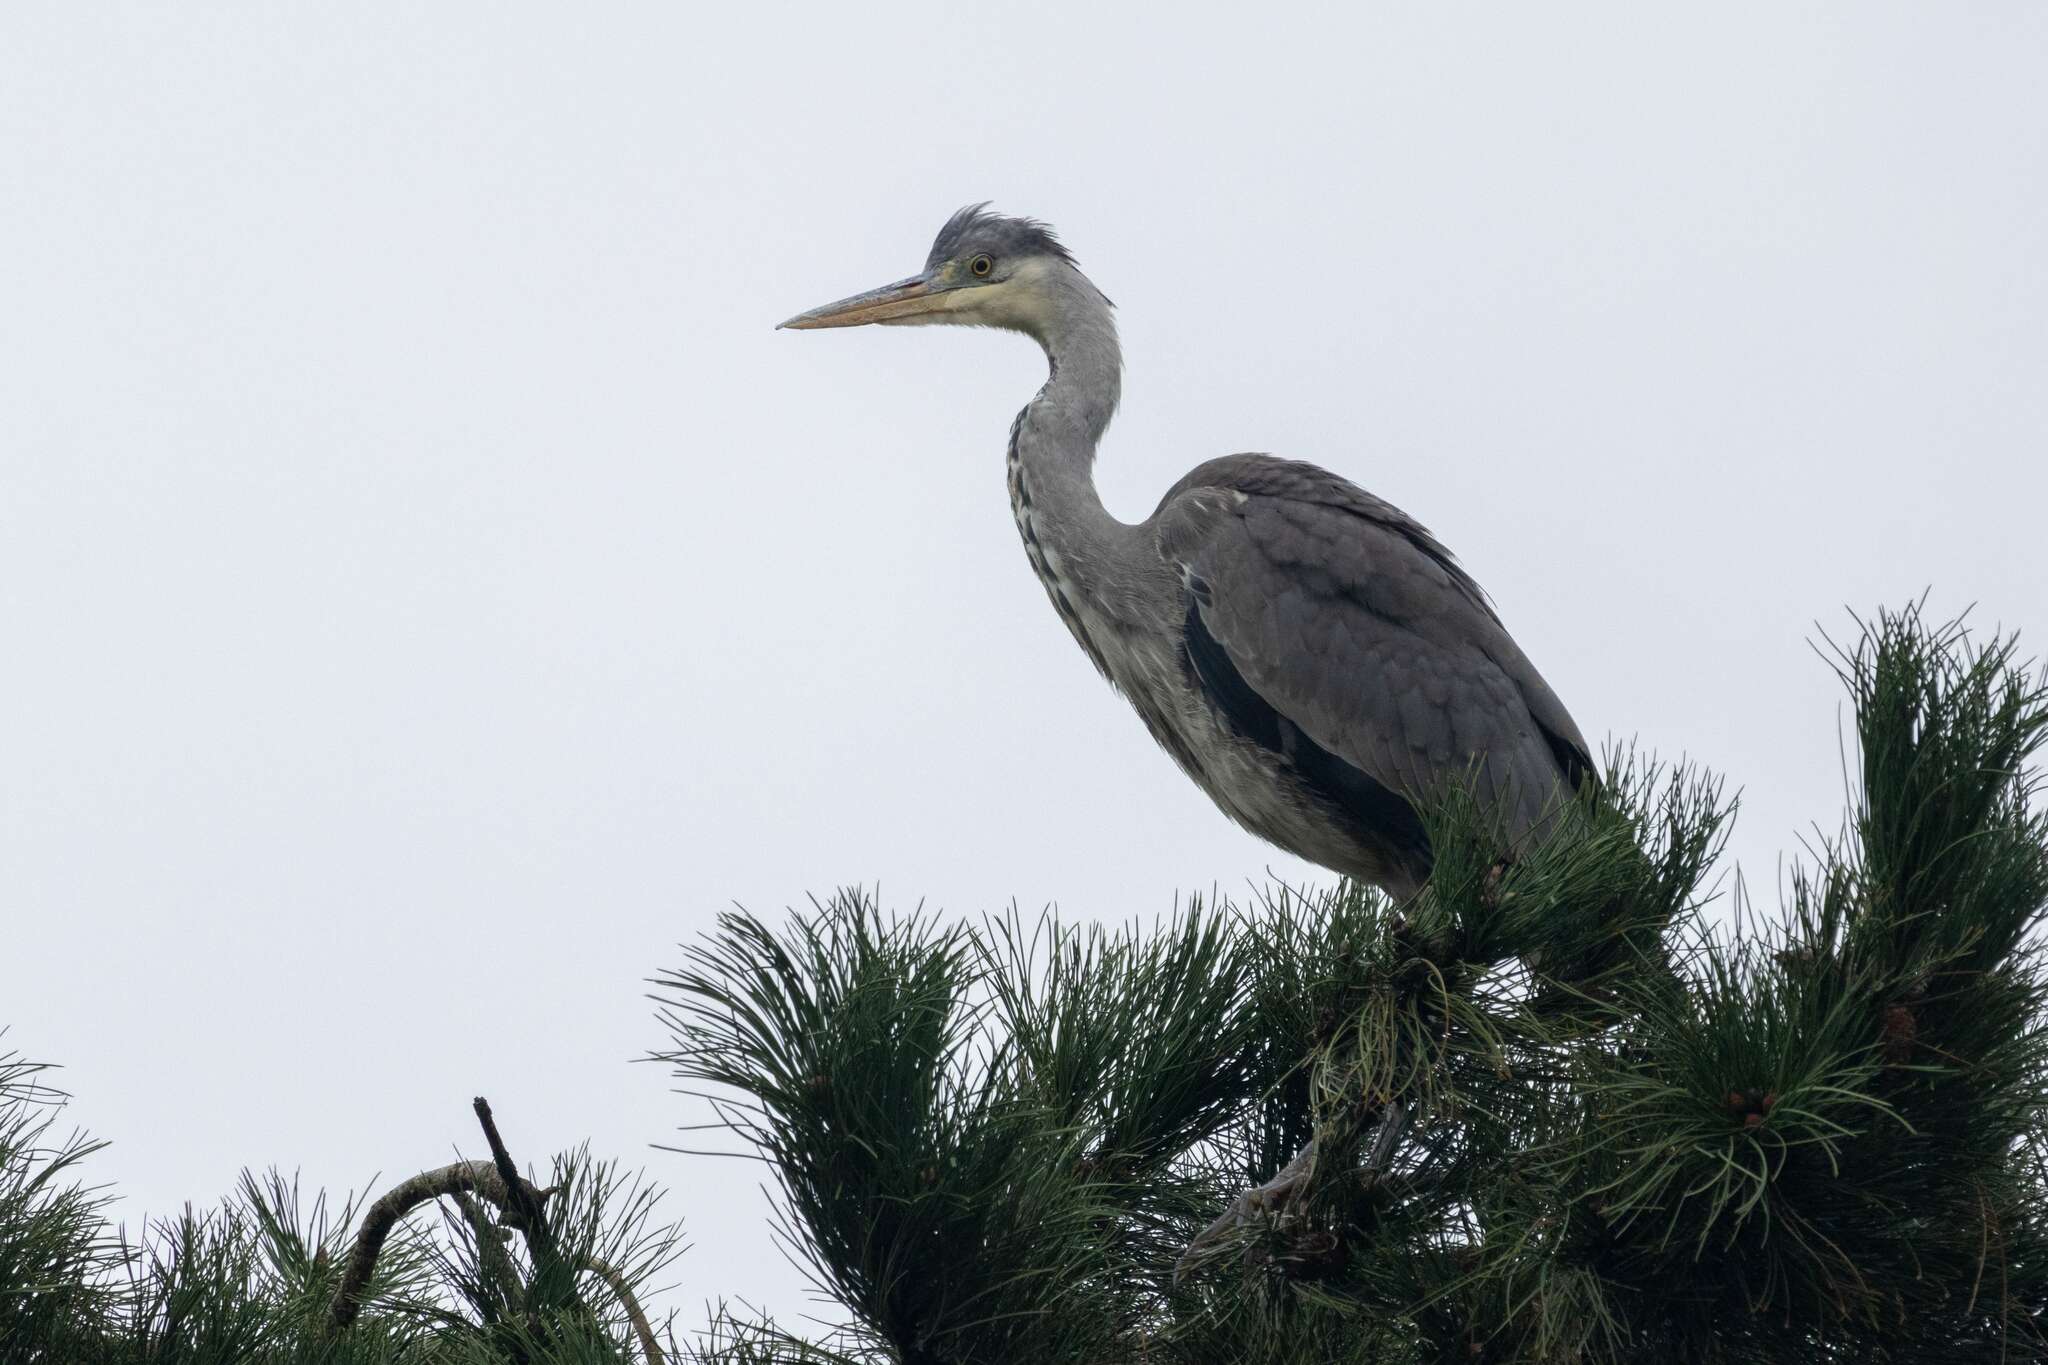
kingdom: Animalia
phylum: Chordata
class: Aves
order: Pelecaniformes
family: Ardeidae
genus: Ardea
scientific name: Ardea cinerea
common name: Grey heron
